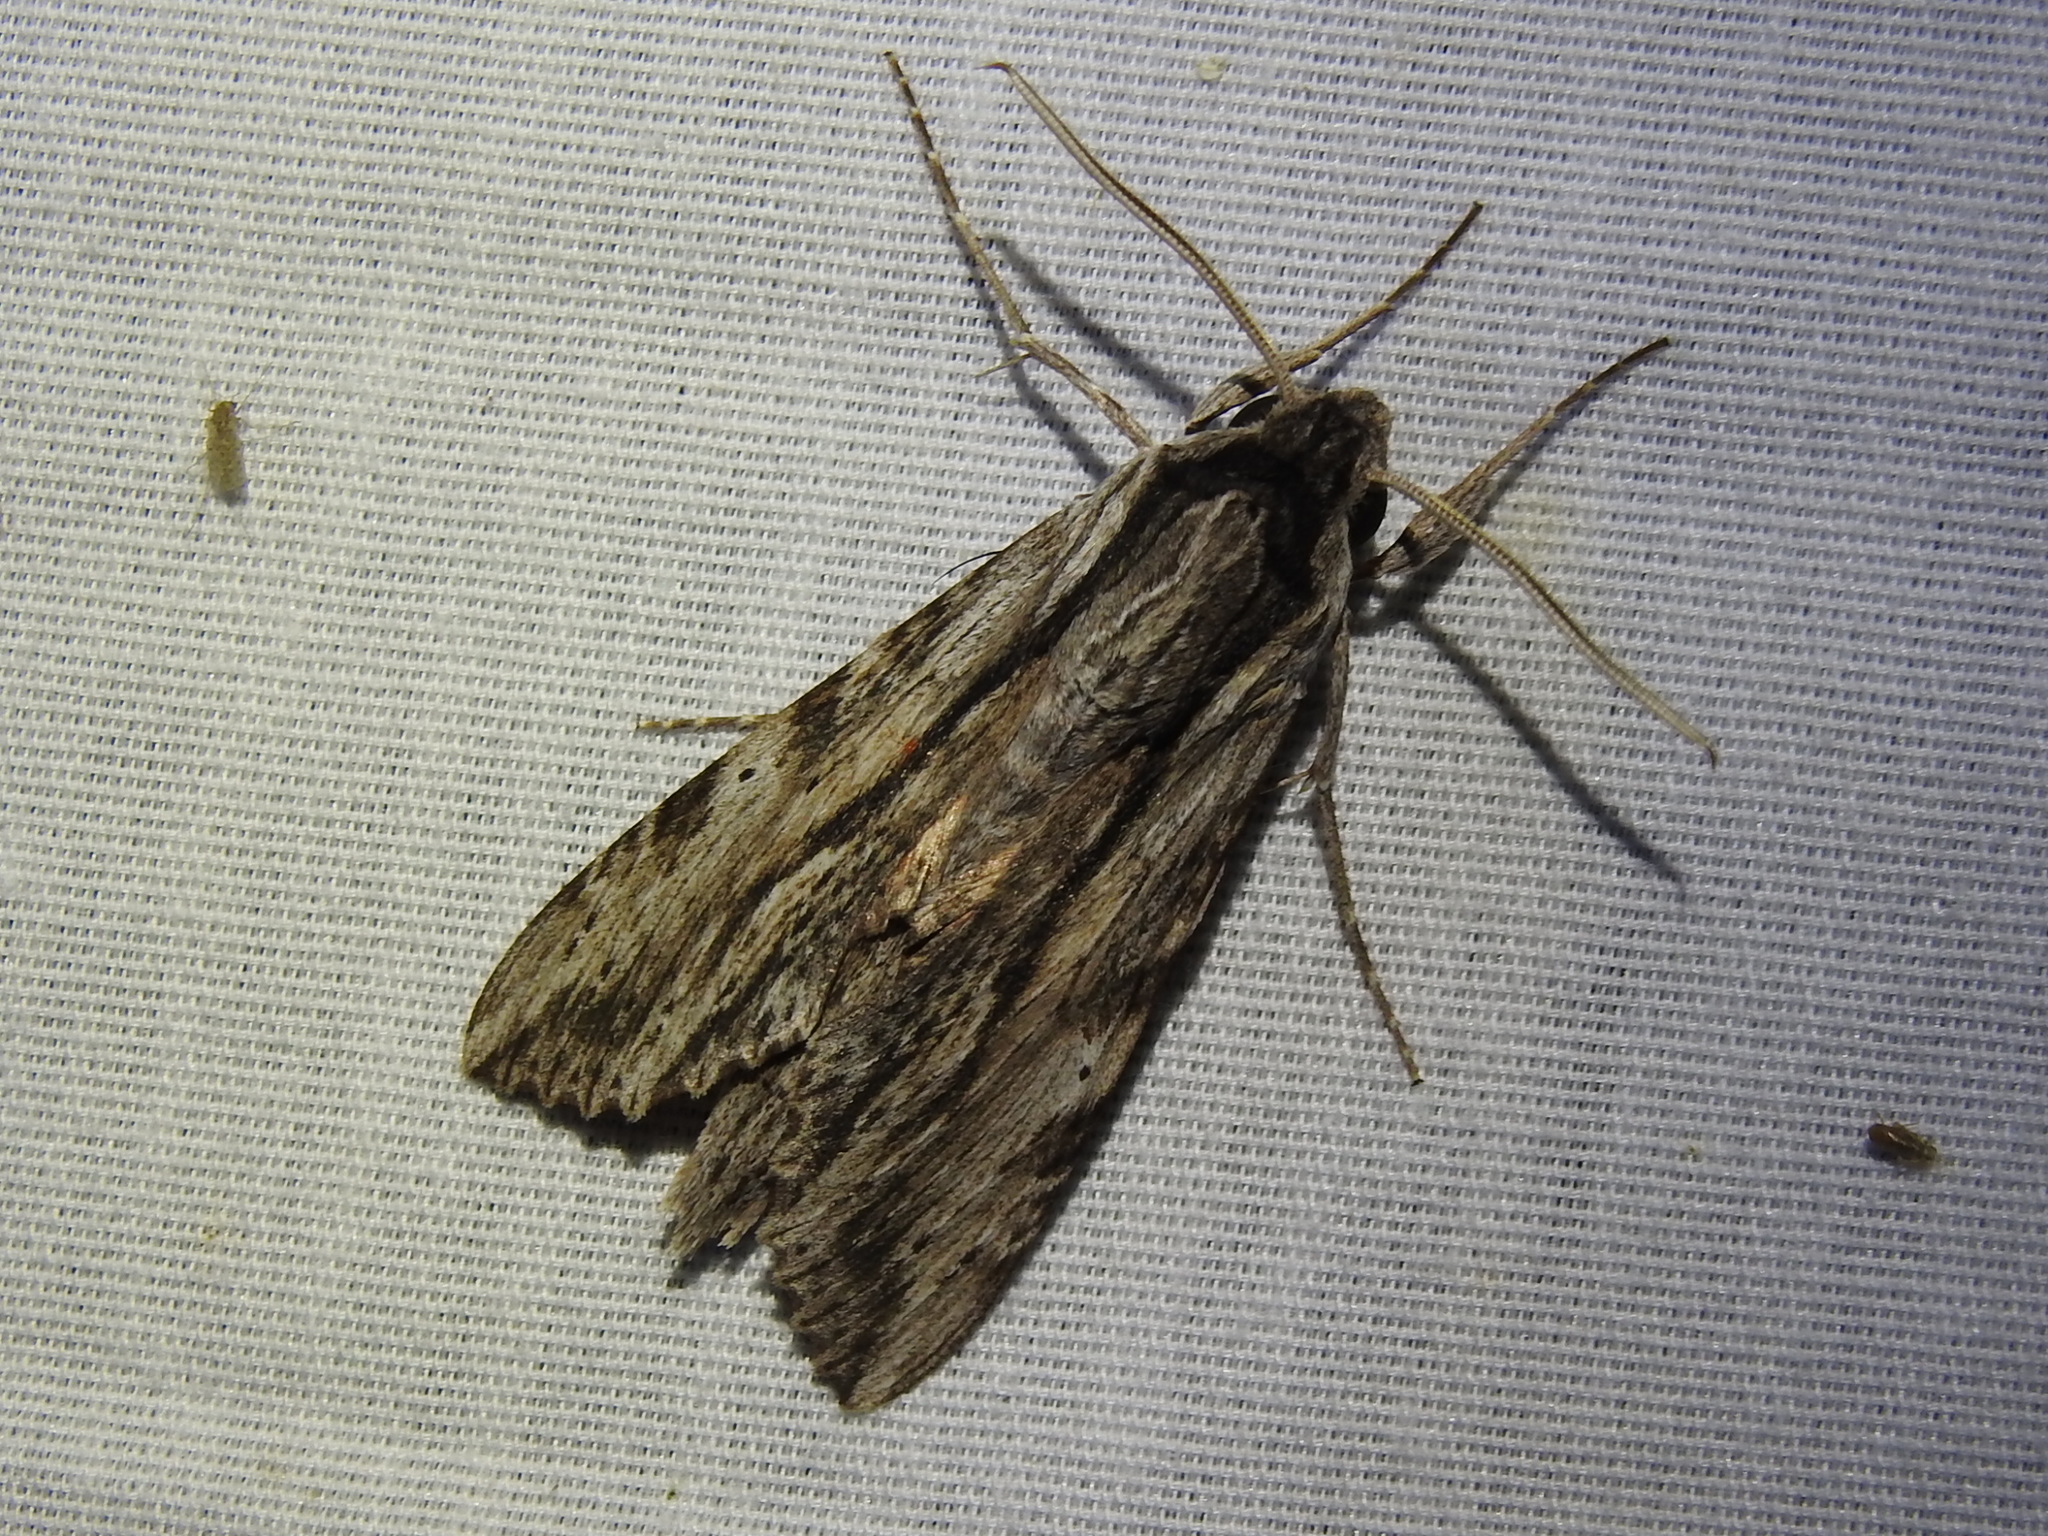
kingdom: Animalia
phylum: Arthropoda
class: Insecta
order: Lepidoptera
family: Sphingidae
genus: Erinnyis
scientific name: Erinnyis obscura
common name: Obscure sphinx
